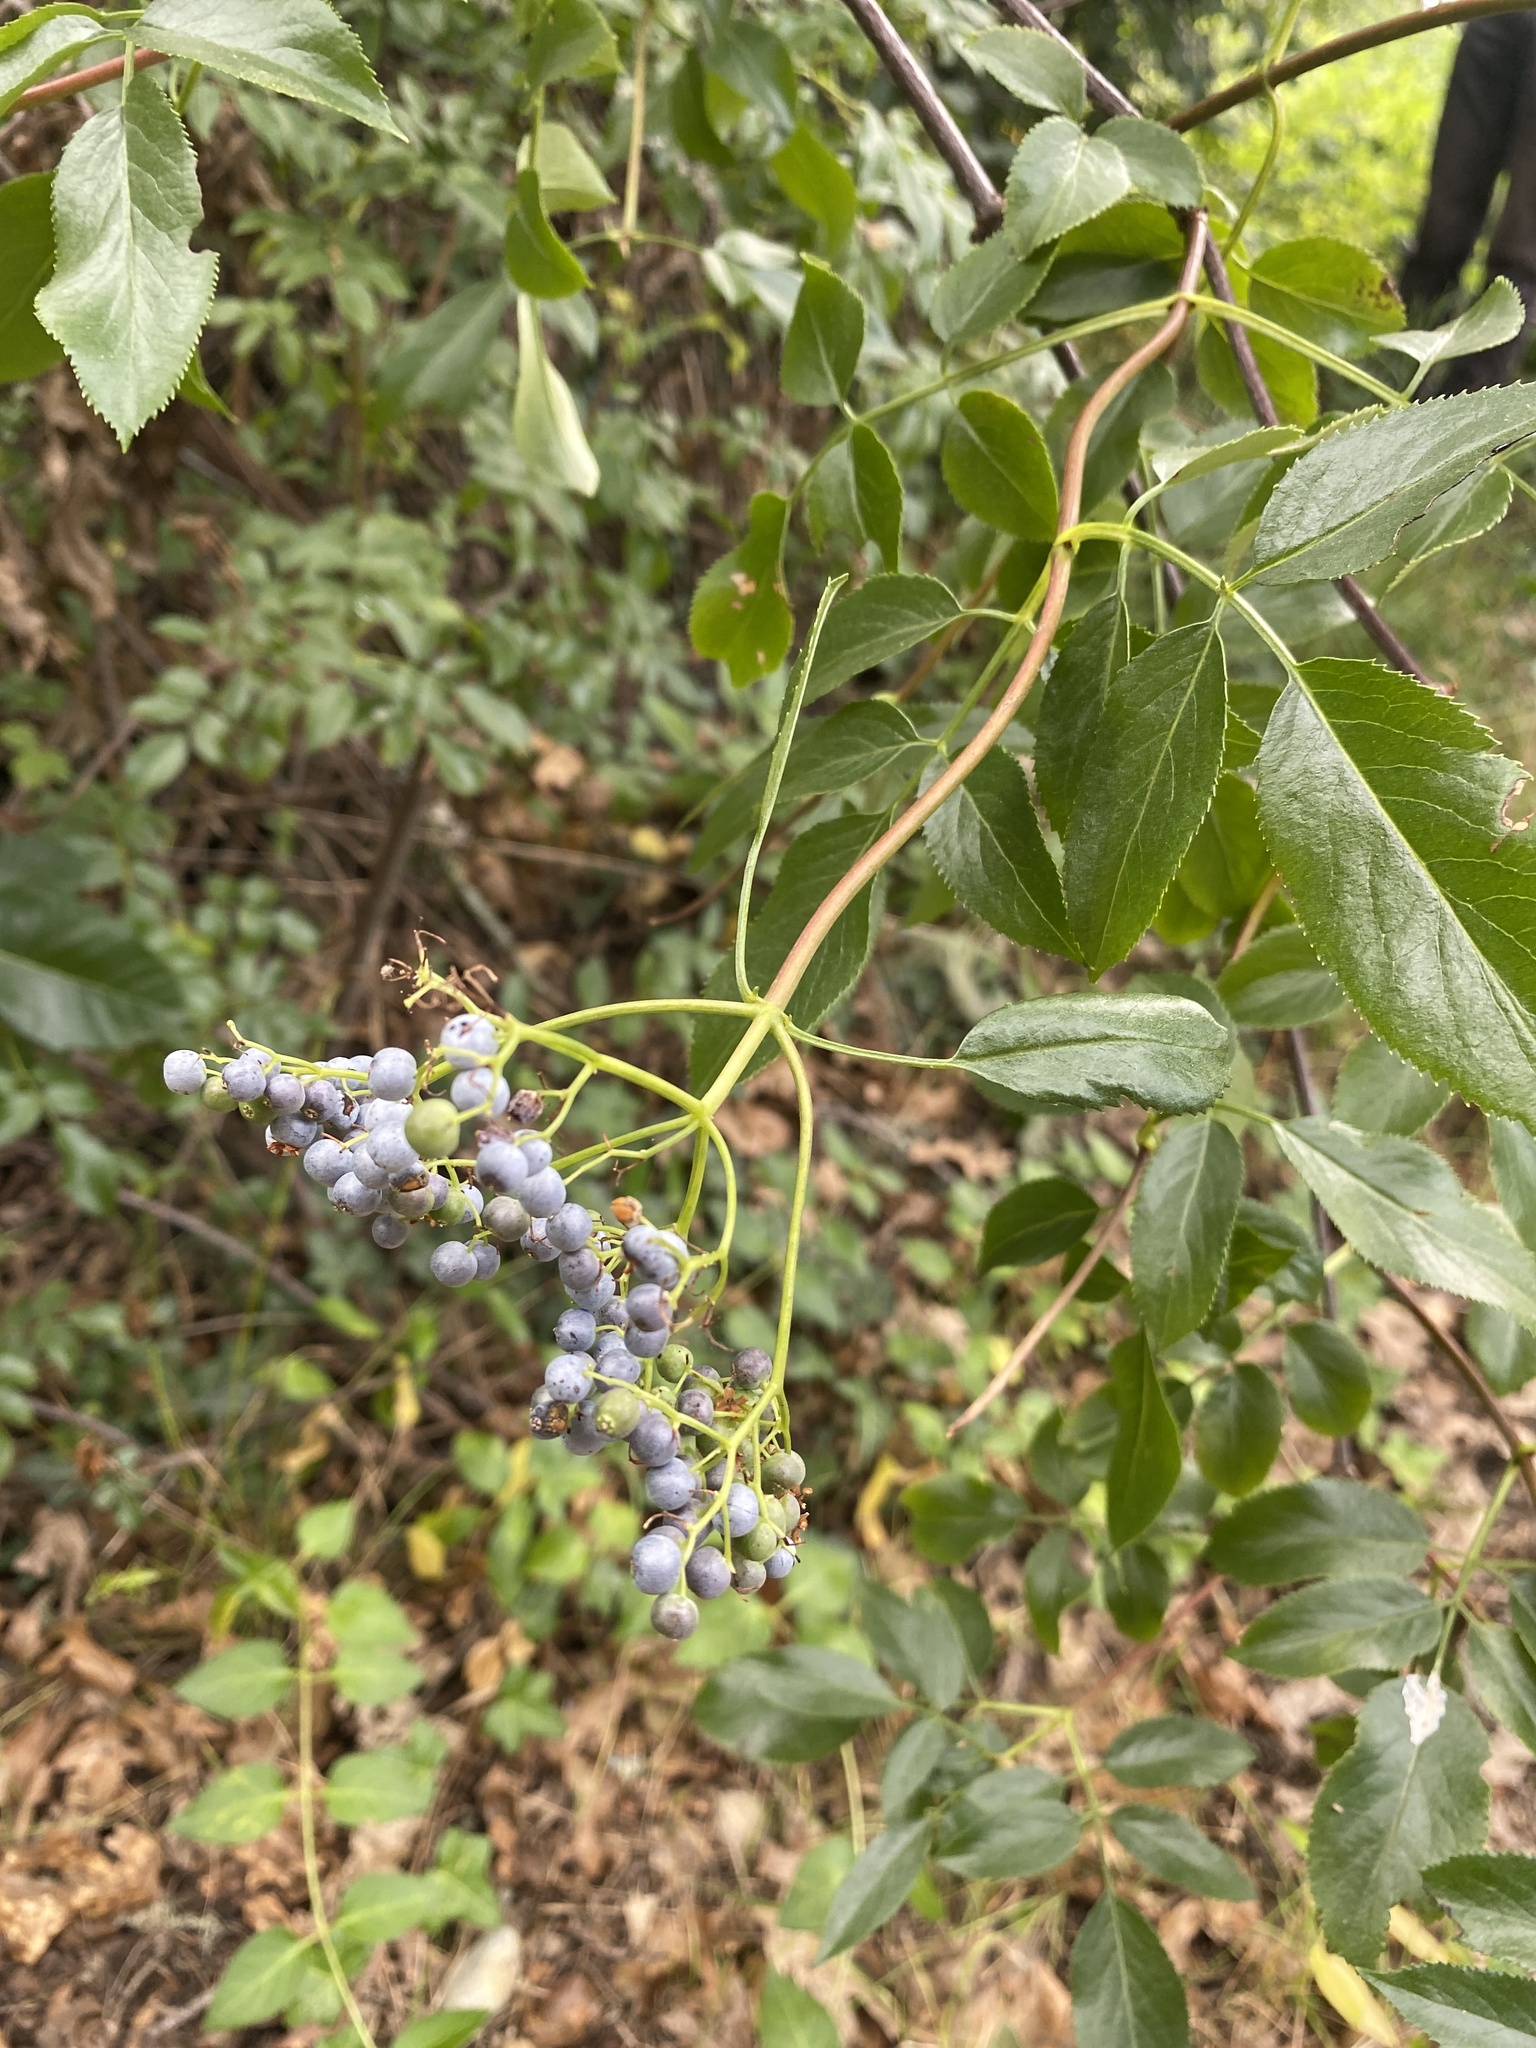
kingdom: Plantae
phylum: Tracheophyta
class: Magnoliopsida
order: Dipsacales
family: Viburnaceae
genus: Sambucus
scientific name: Sambucus cerulea
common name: Blue elder
